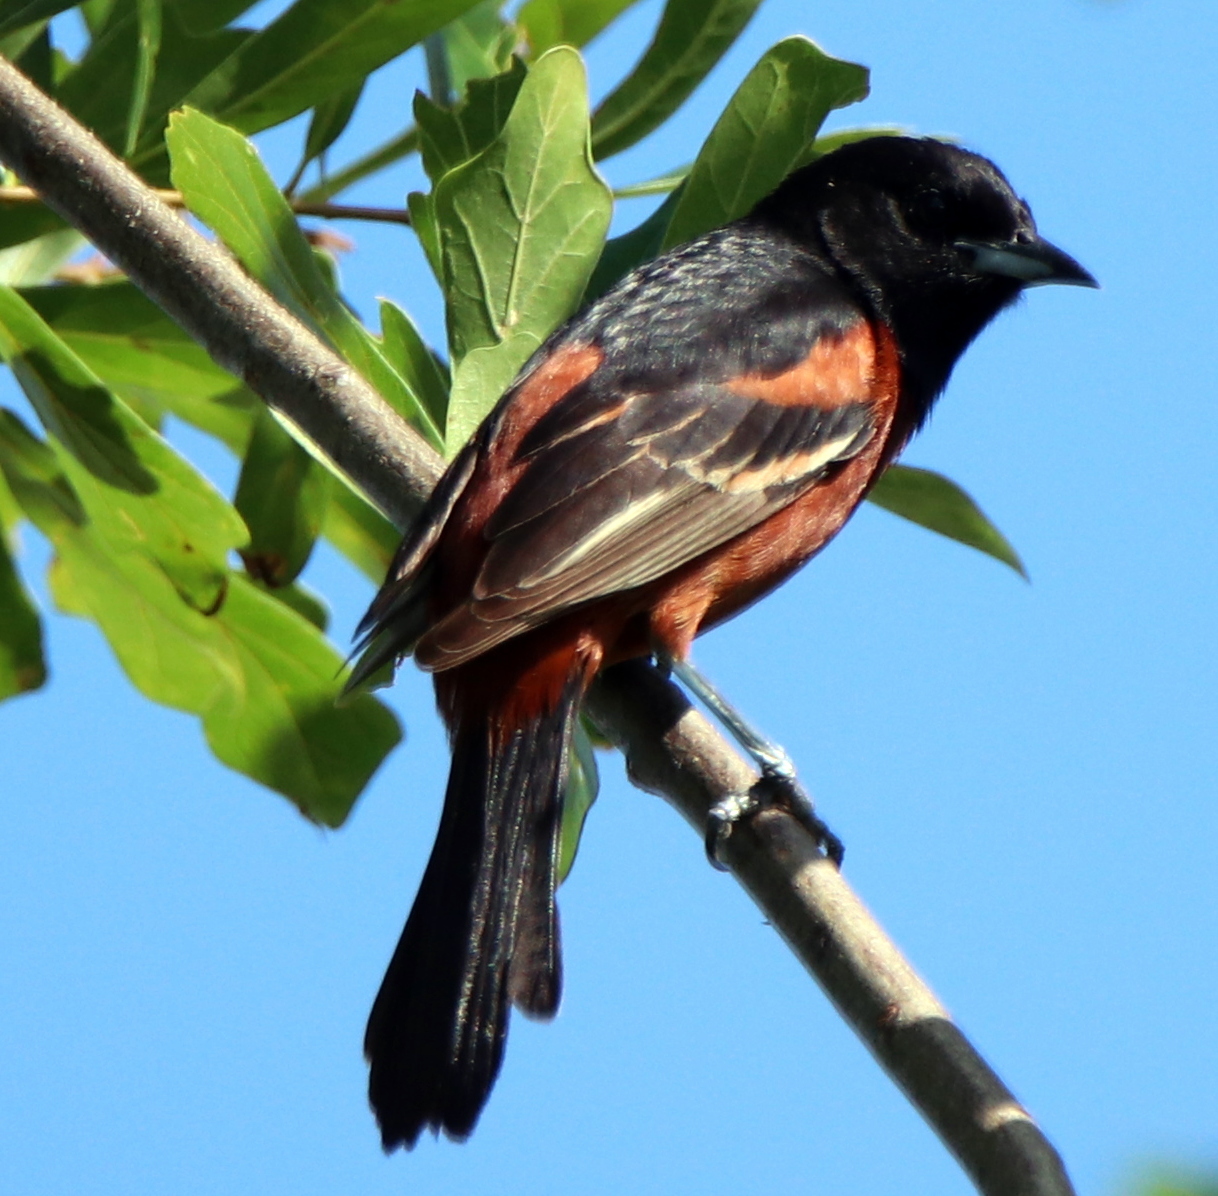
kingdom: Animalia
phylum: Chordata
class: Aves
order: Passeriformes
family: Icteridae
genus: Icterus
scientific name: Icterus spurius
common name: Orchard oriole
